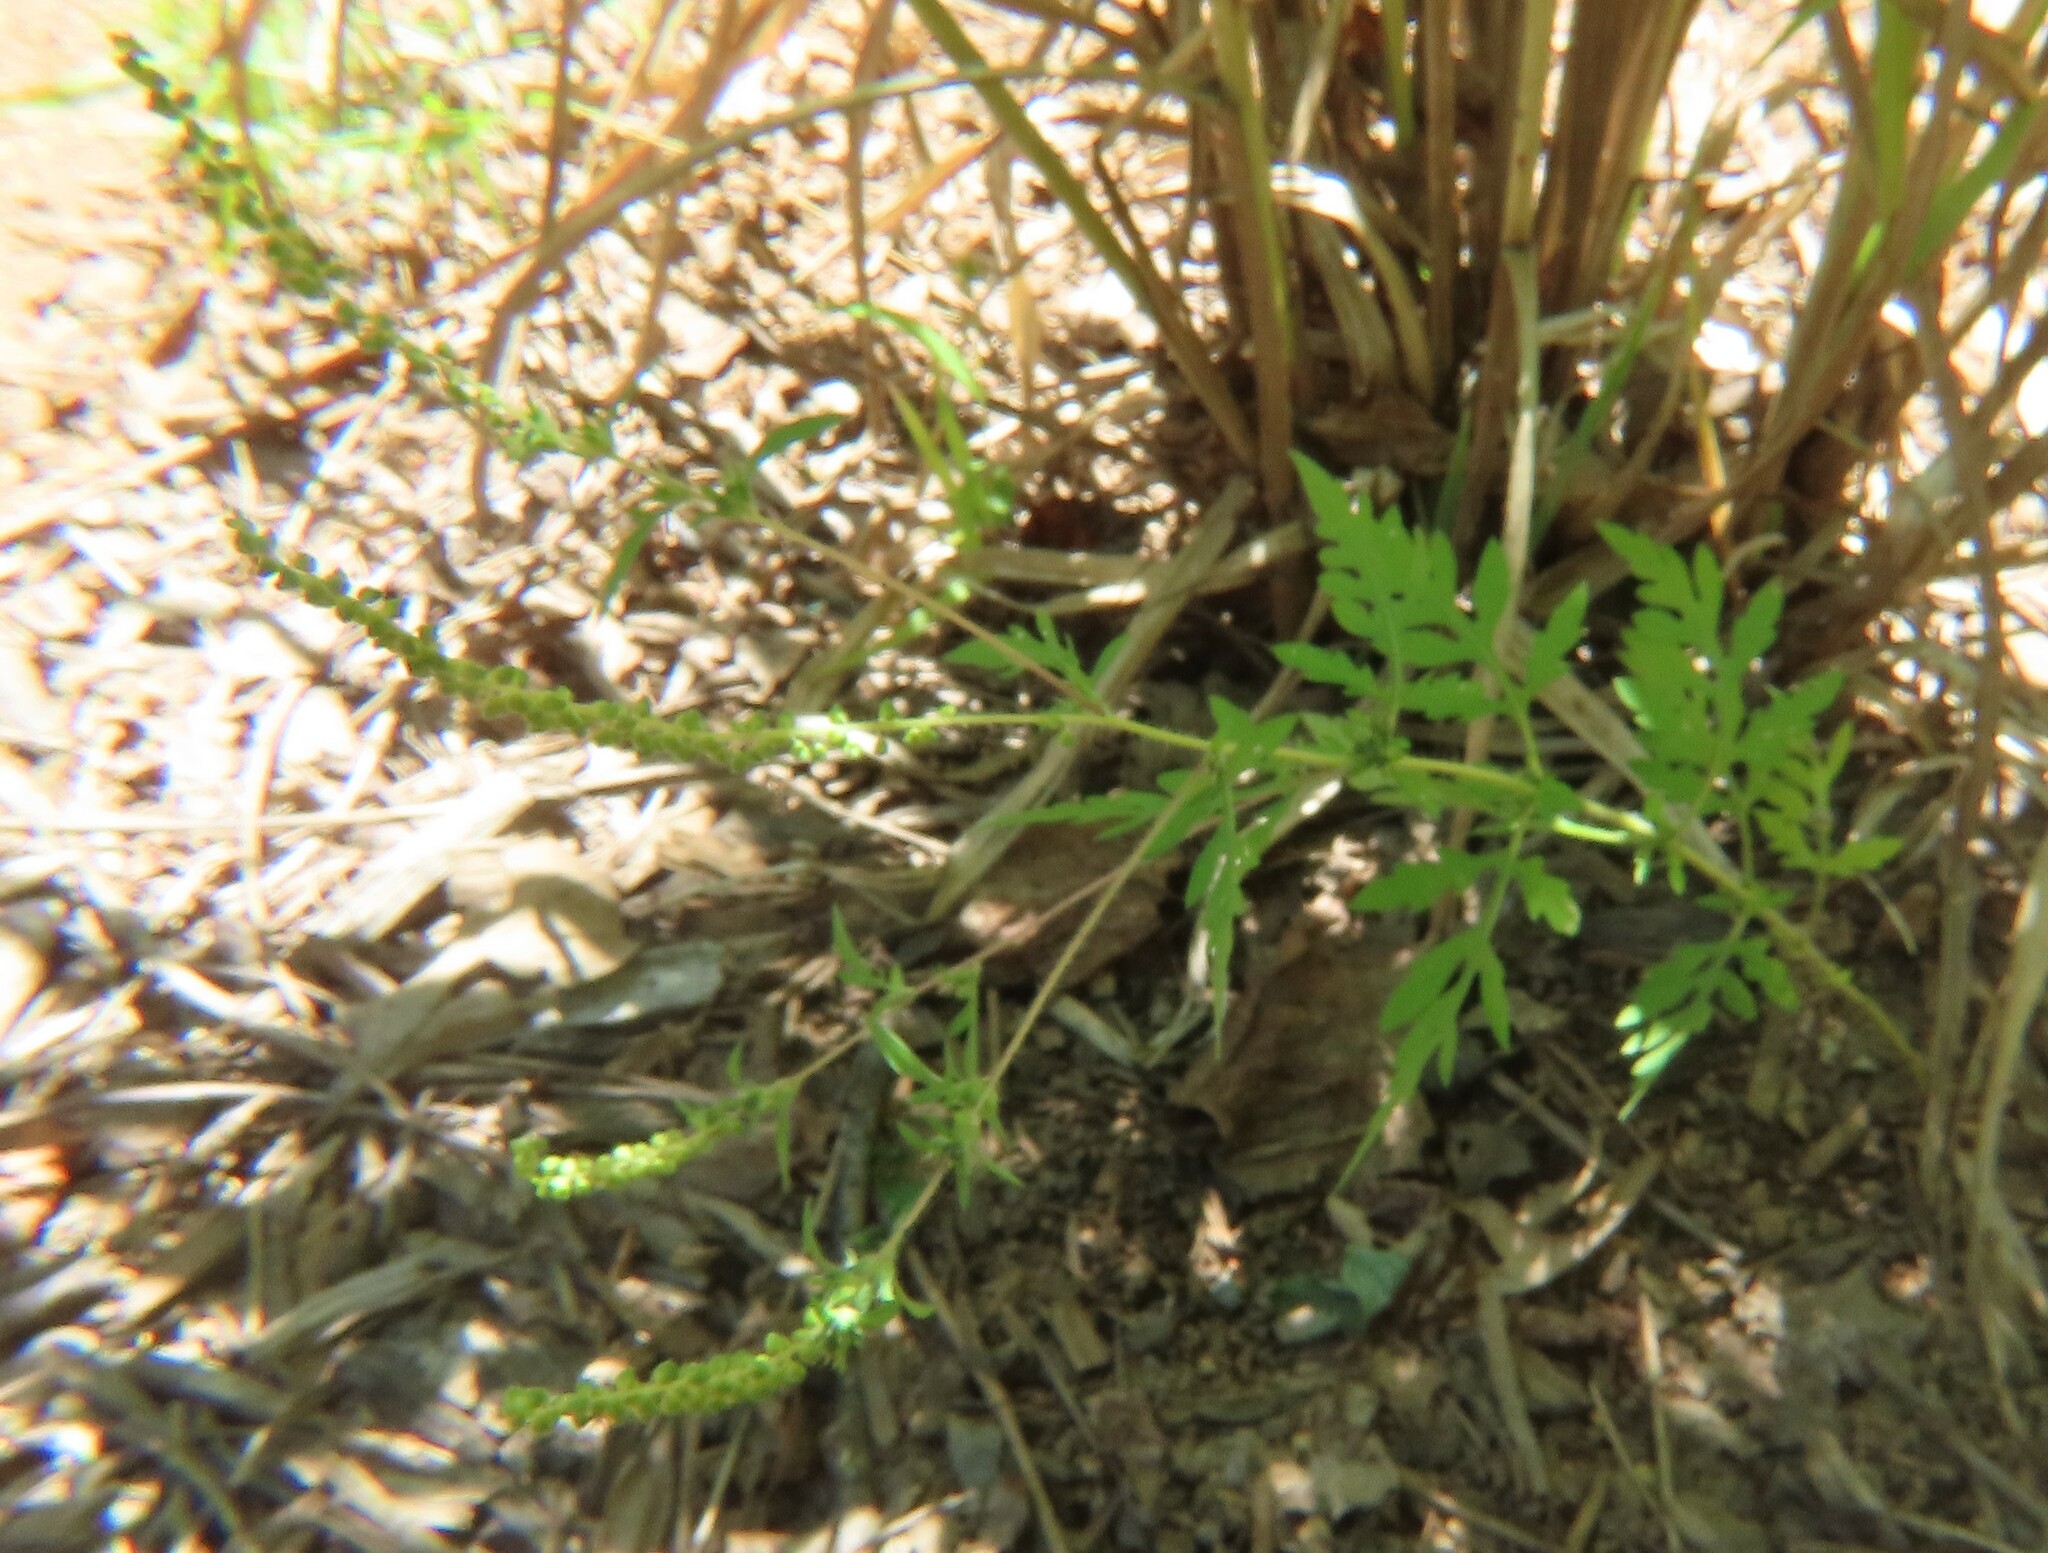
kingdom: Plantae
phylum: Tracheophyta
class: Magnoliopsida
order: Asterales
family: Asteraceae
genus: Ambrosia
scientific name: Ambrosia artemisiifolia
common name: Annual ragweed
